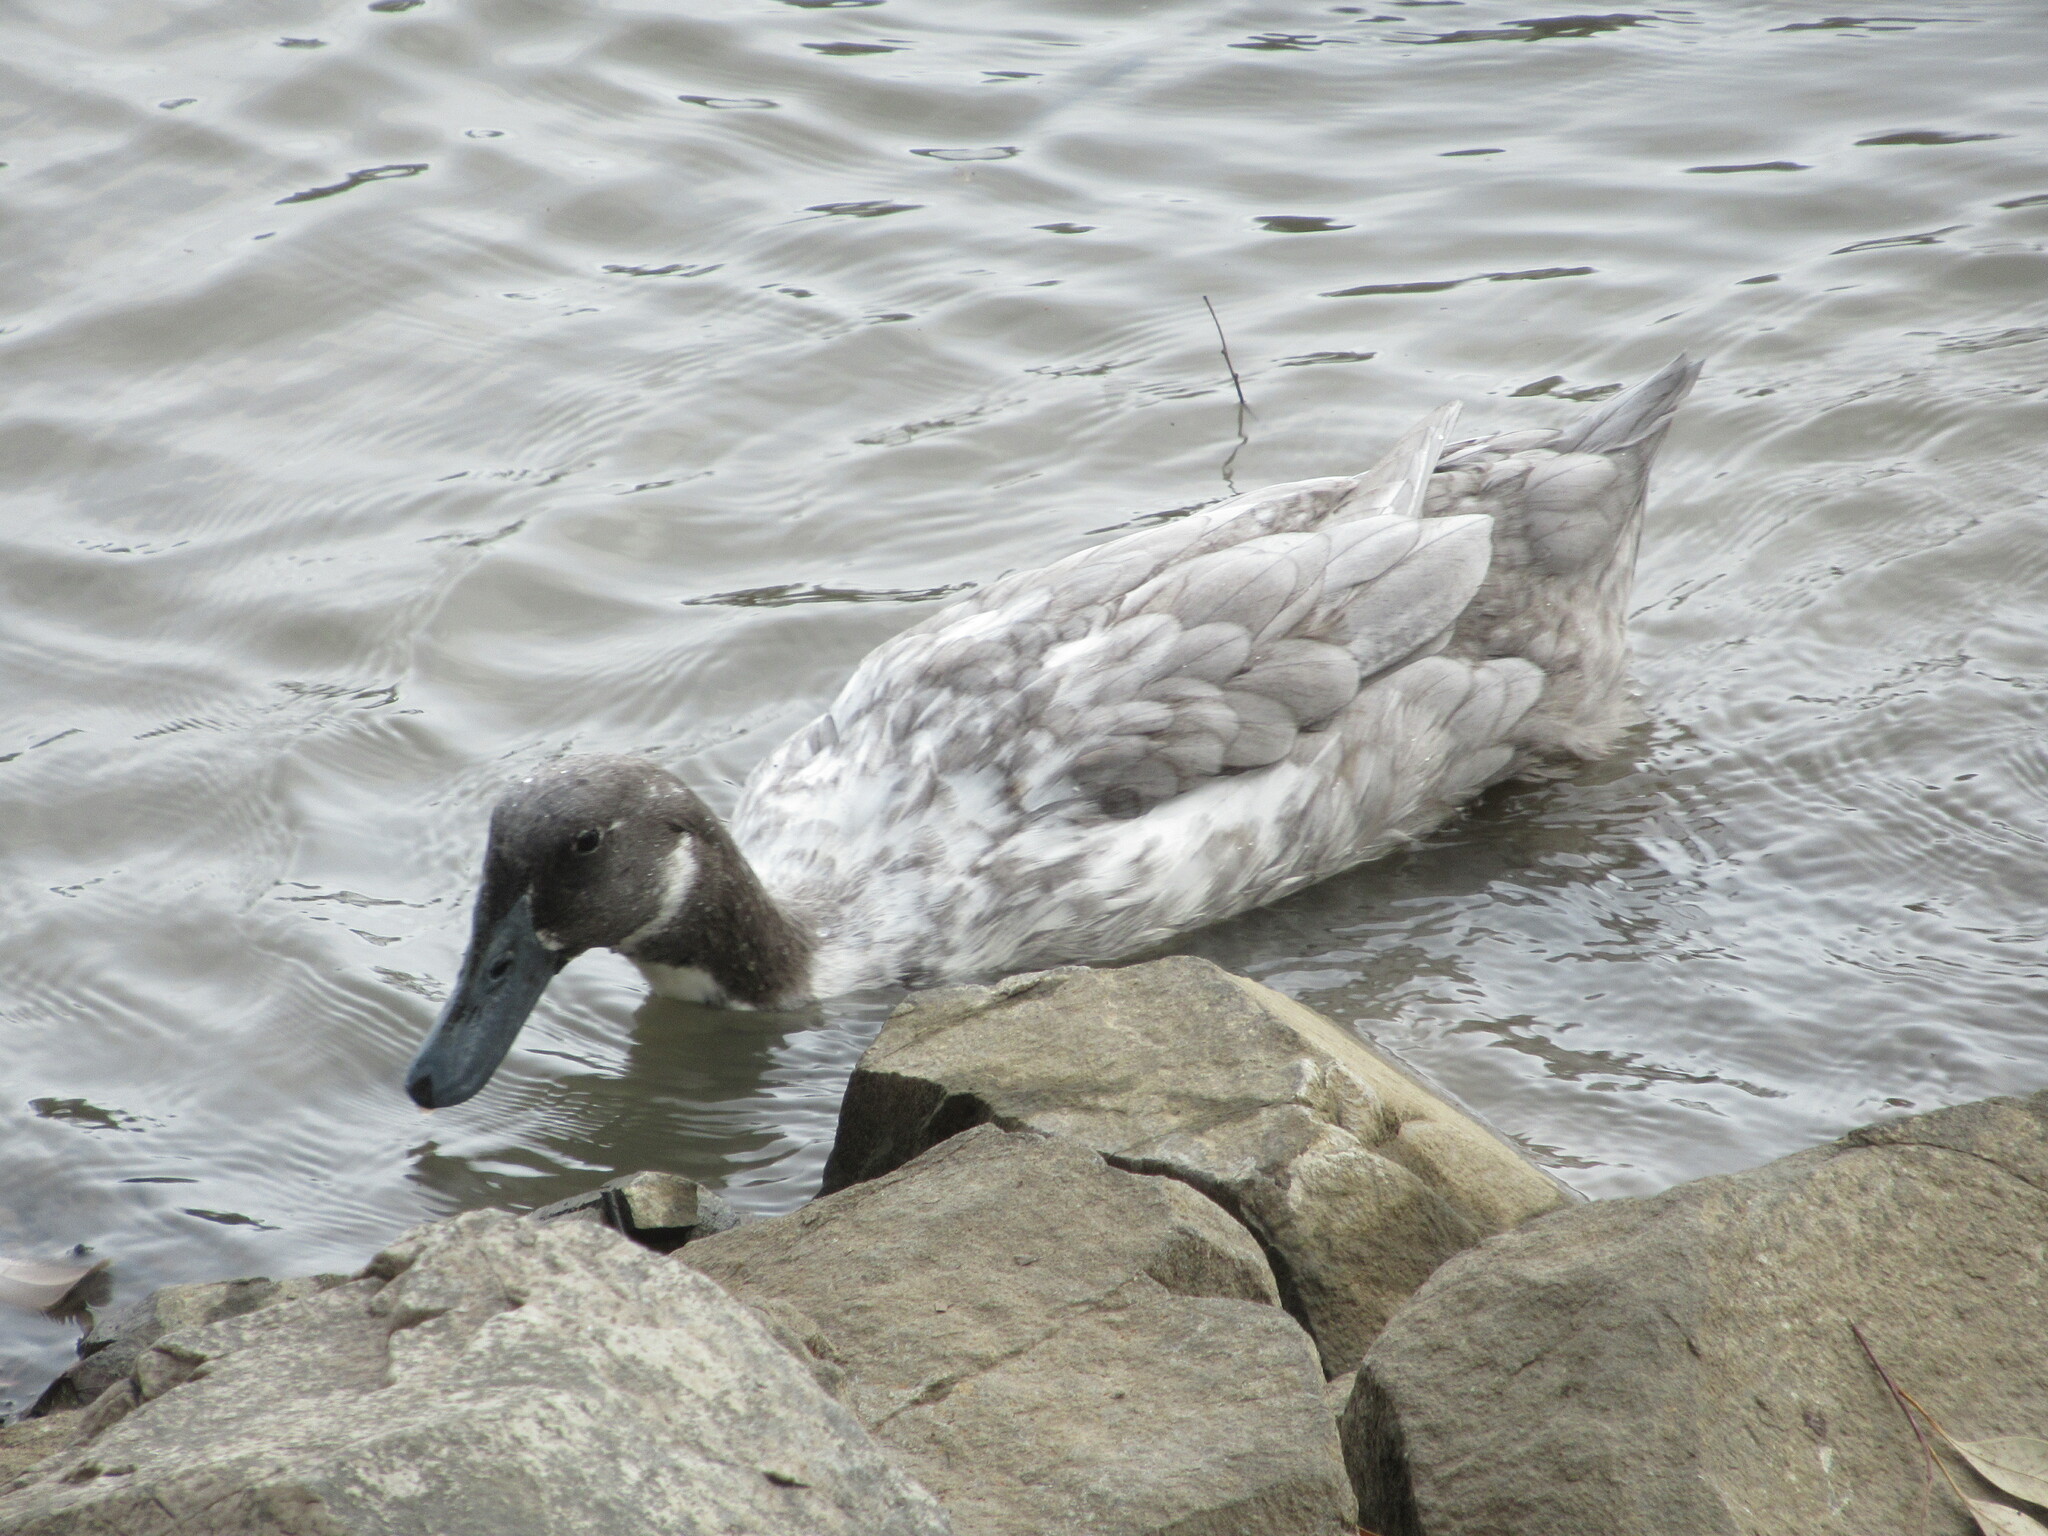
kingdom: Animalia
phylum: Chordata
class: Aves
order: Anseriformes
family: Anatidae
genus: Anas
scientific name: Anas platyrhynchos
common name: Mallard
